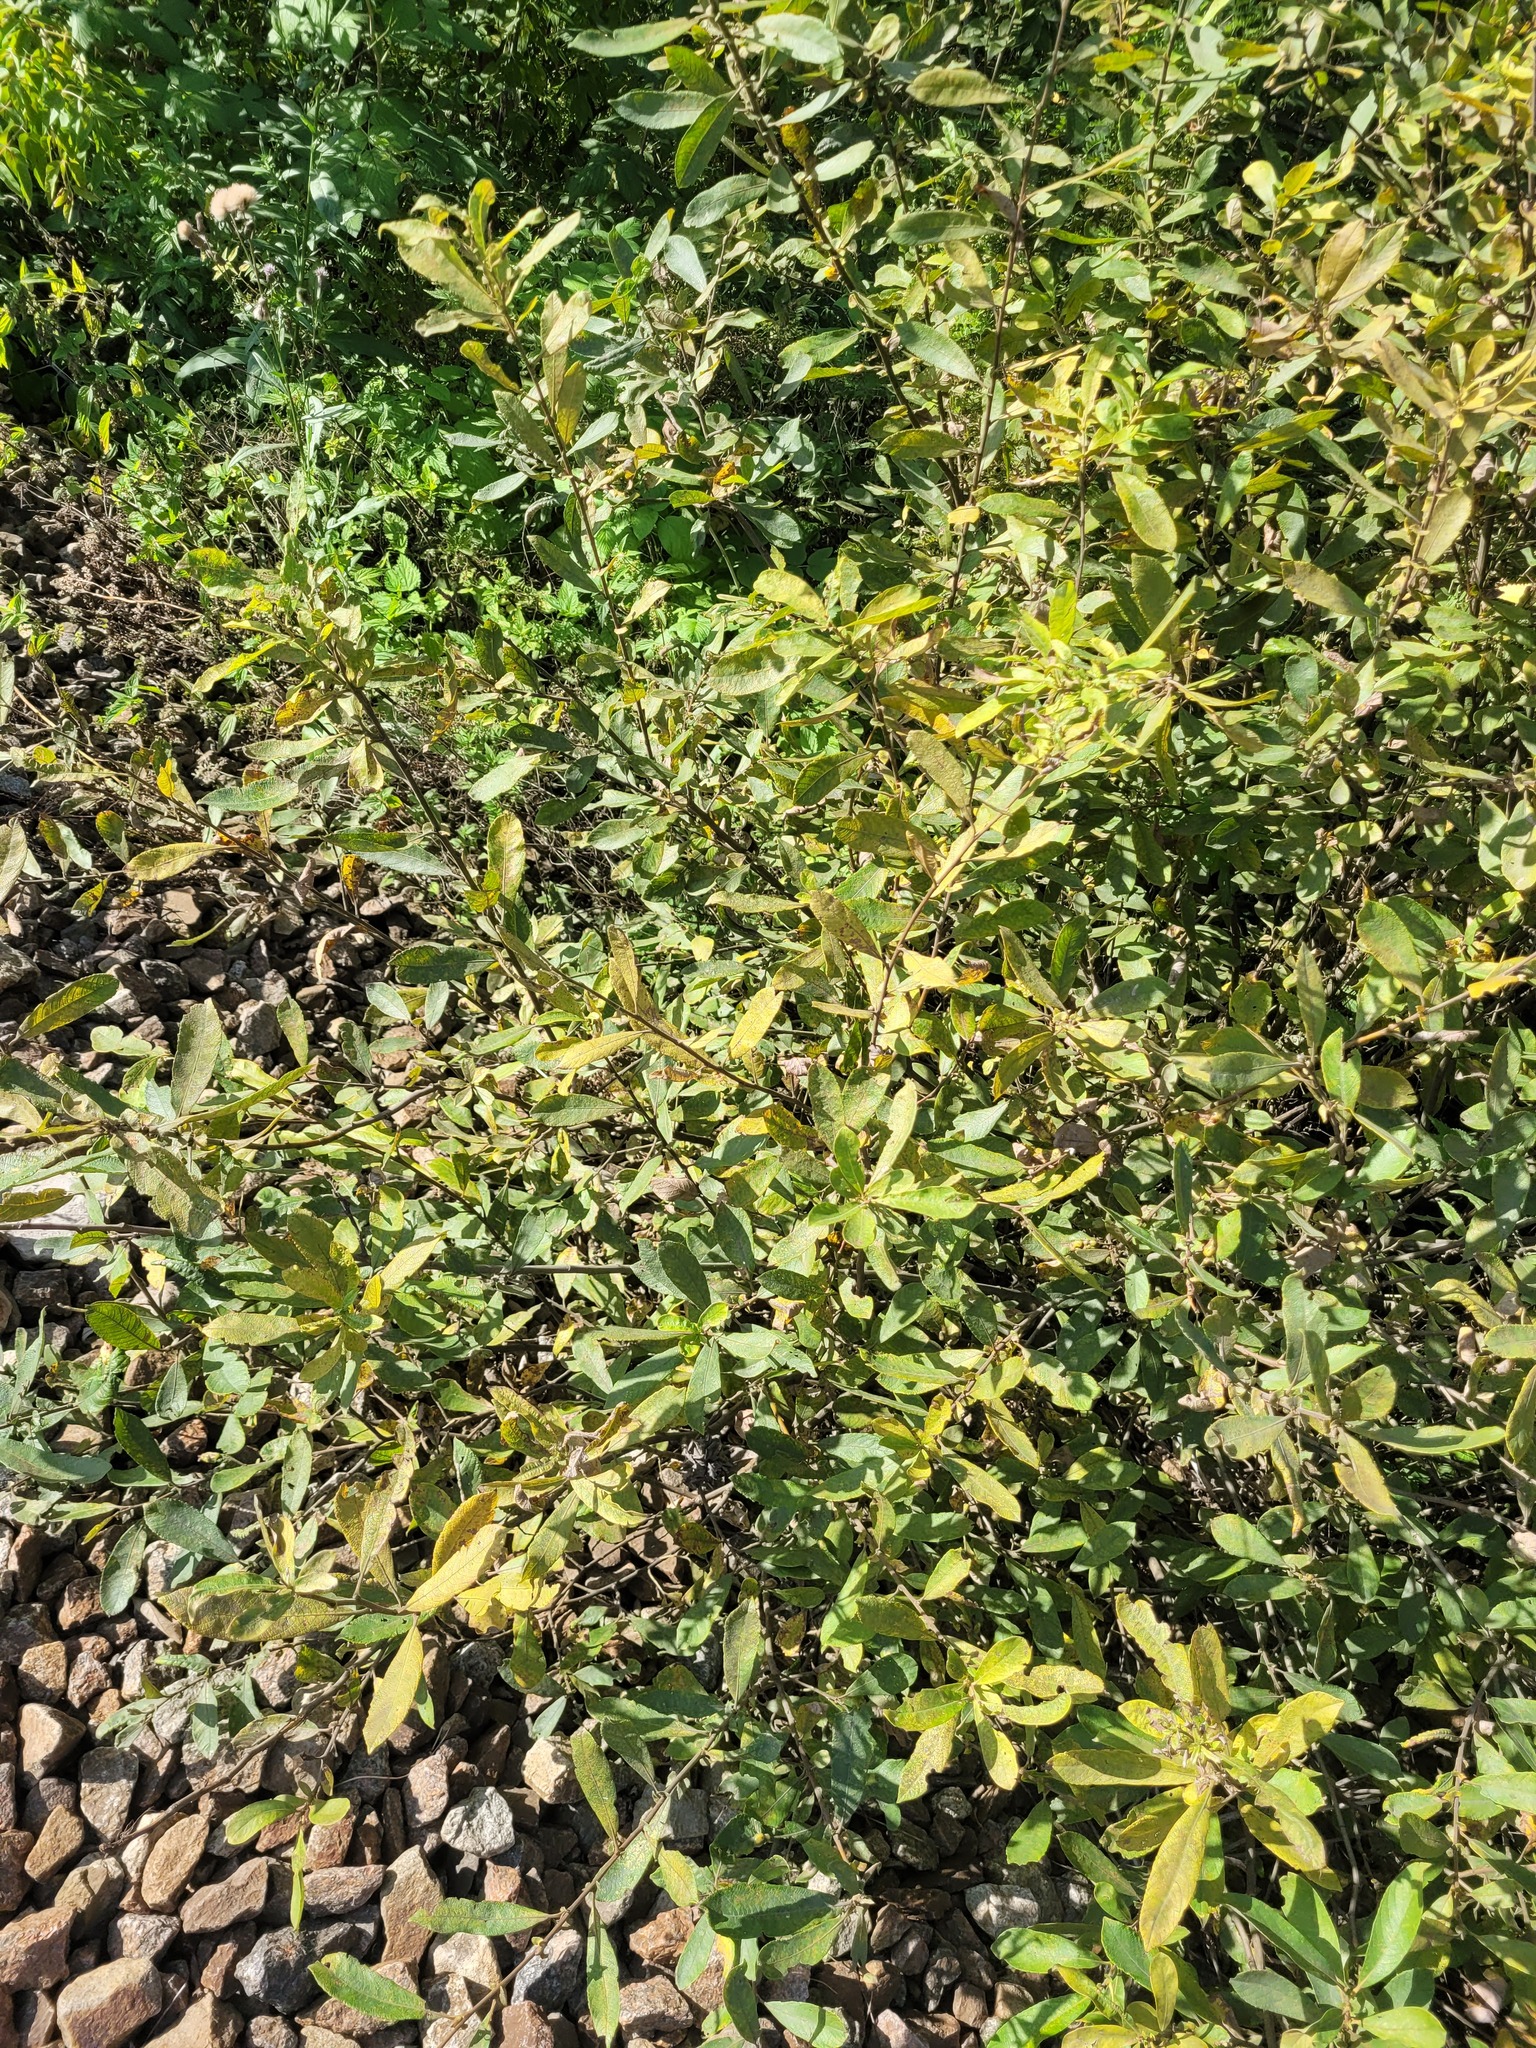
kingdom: Plantae
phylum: Tracheophyta
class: Magnoliopsida
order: Malpighiales
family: Salicaceae
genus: Salix
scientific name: Salix cinerea
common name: Common sallow
